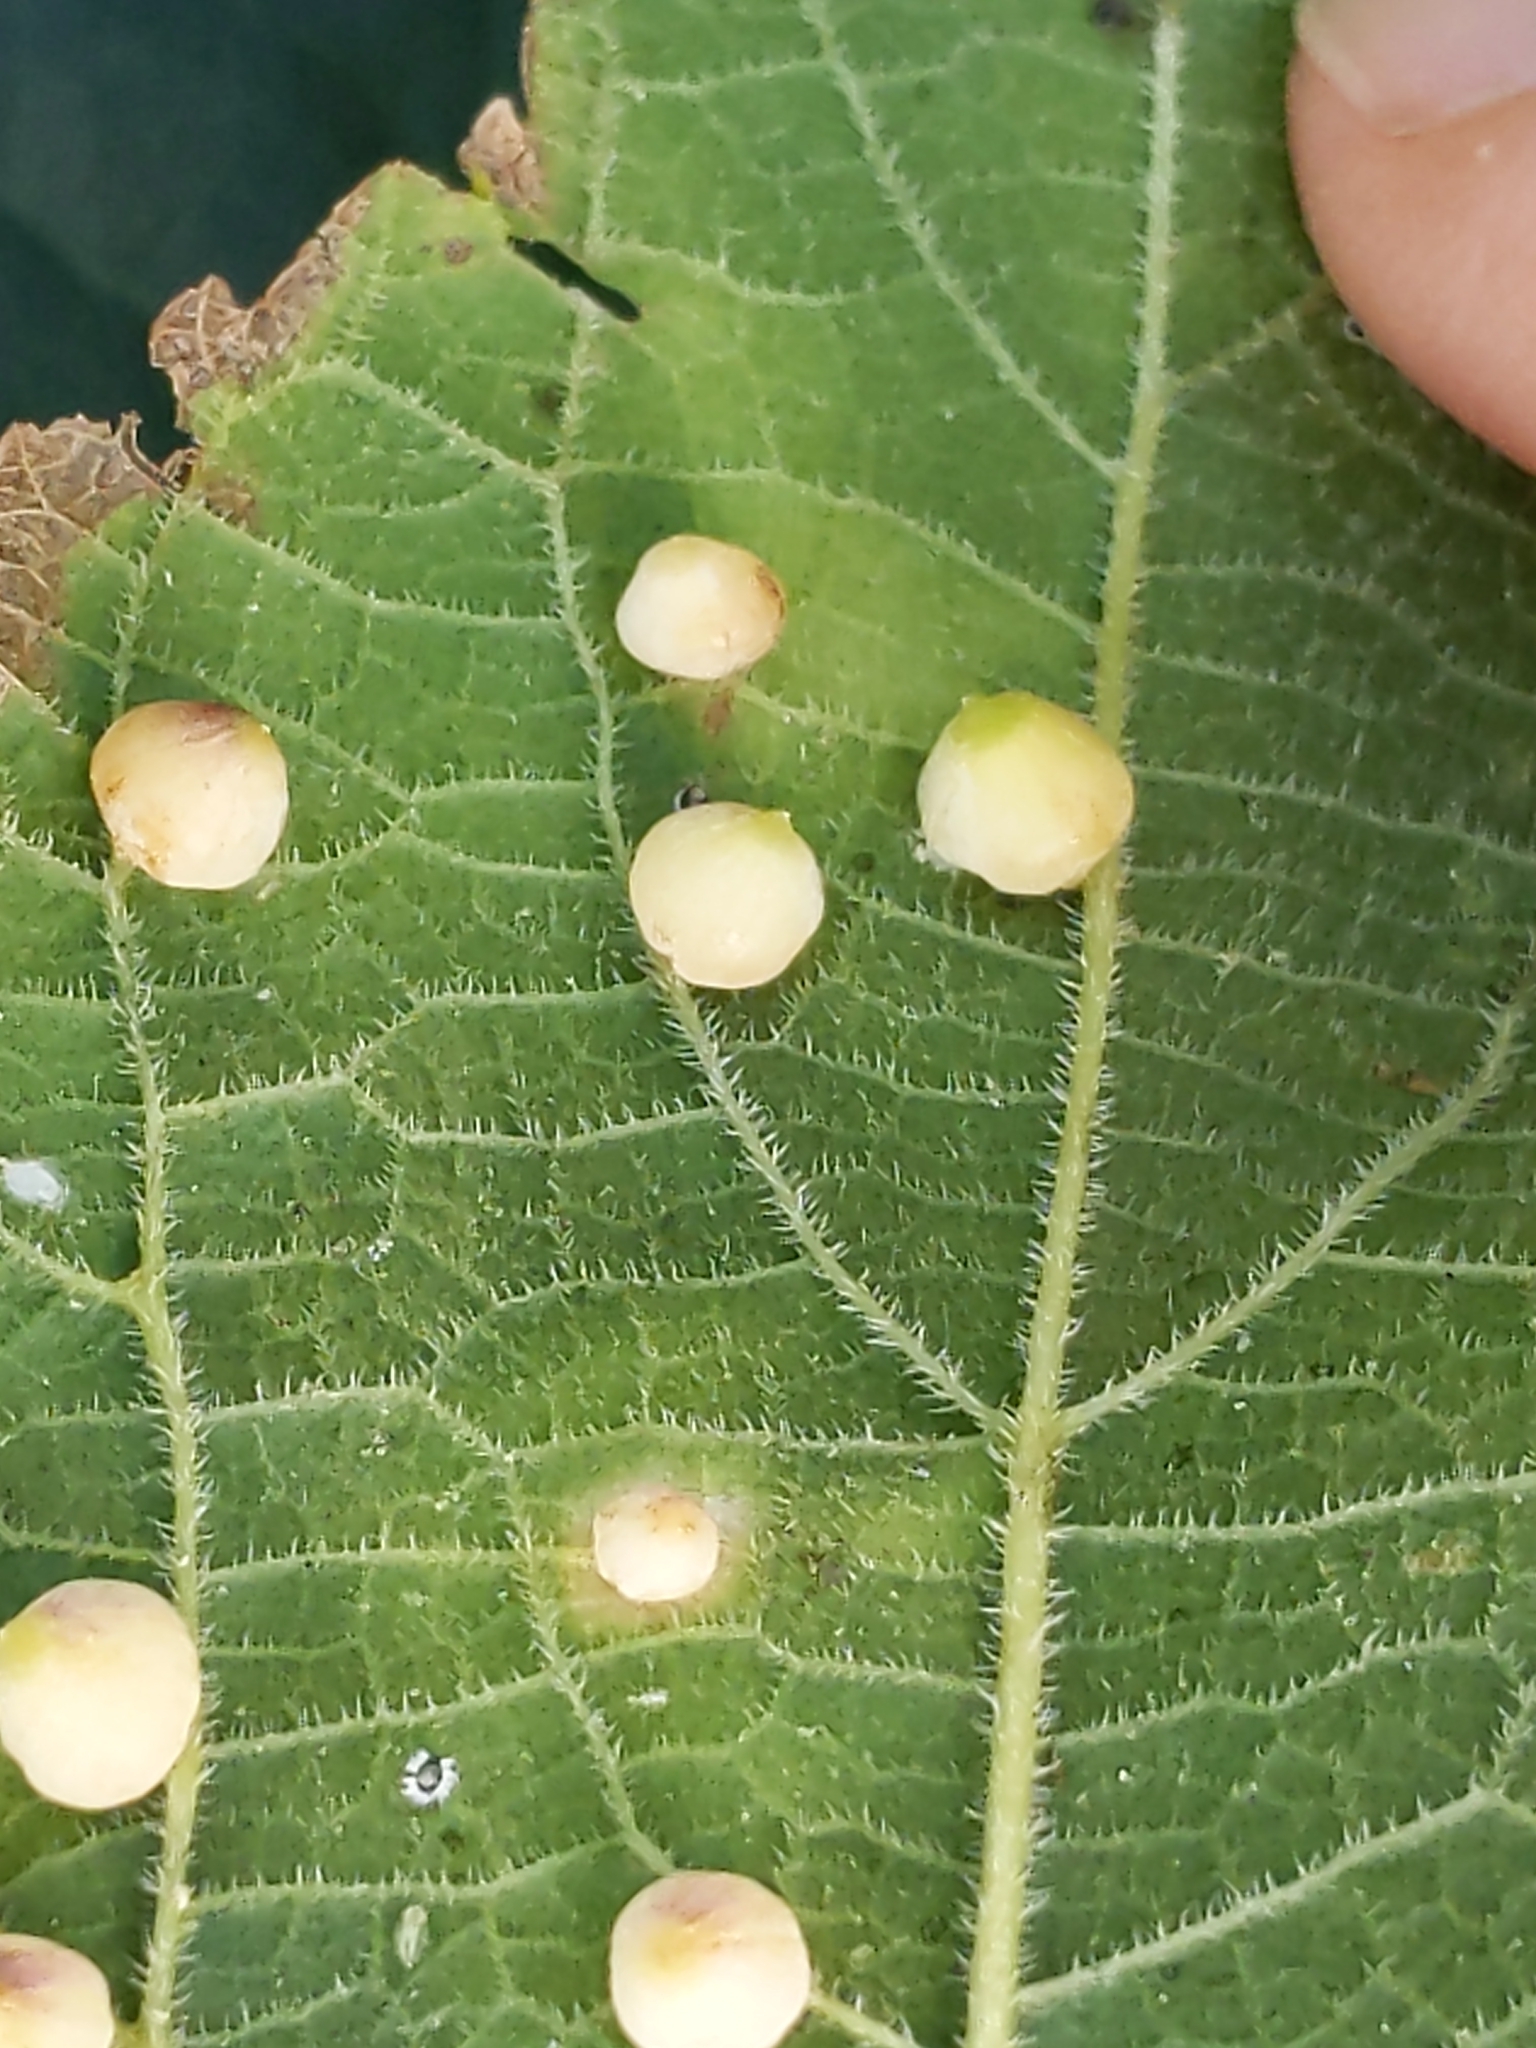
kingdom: Animalia
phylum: Arthropoda
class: Insecta
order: Diptera
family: Cecidomyiidae
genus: Celticecis
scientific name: Celticecis globosa
